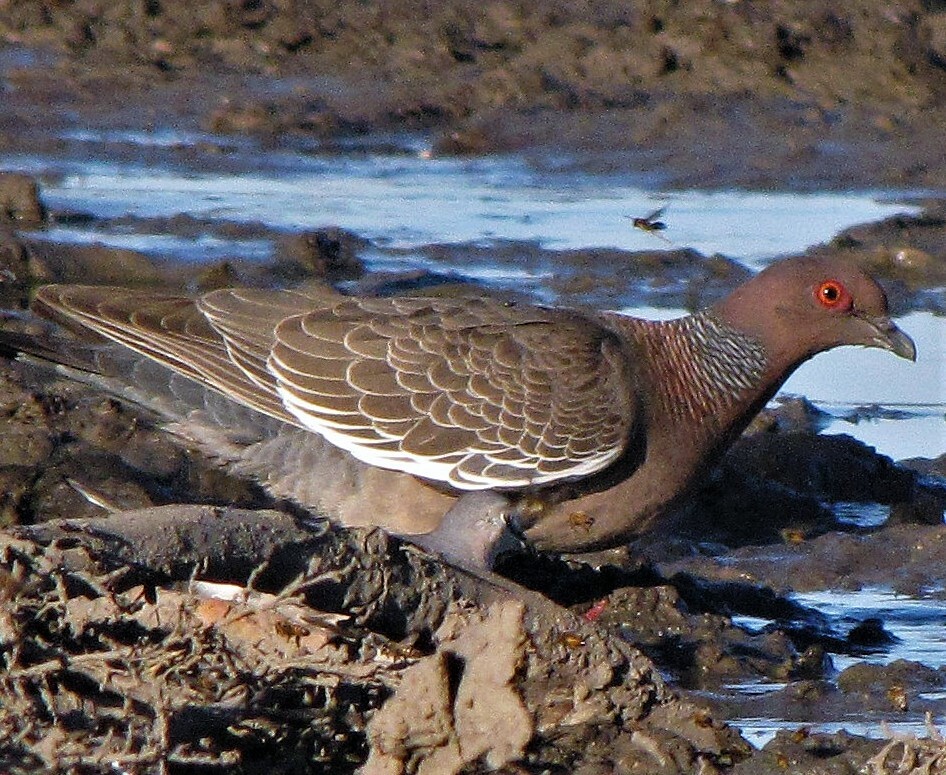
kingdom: Animalia
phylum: Chordata
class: Aves
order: Columbiformes
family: Columbidae
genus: Patagioenas
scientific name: Patagioenas picazuro
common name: Picazuro pigeon
